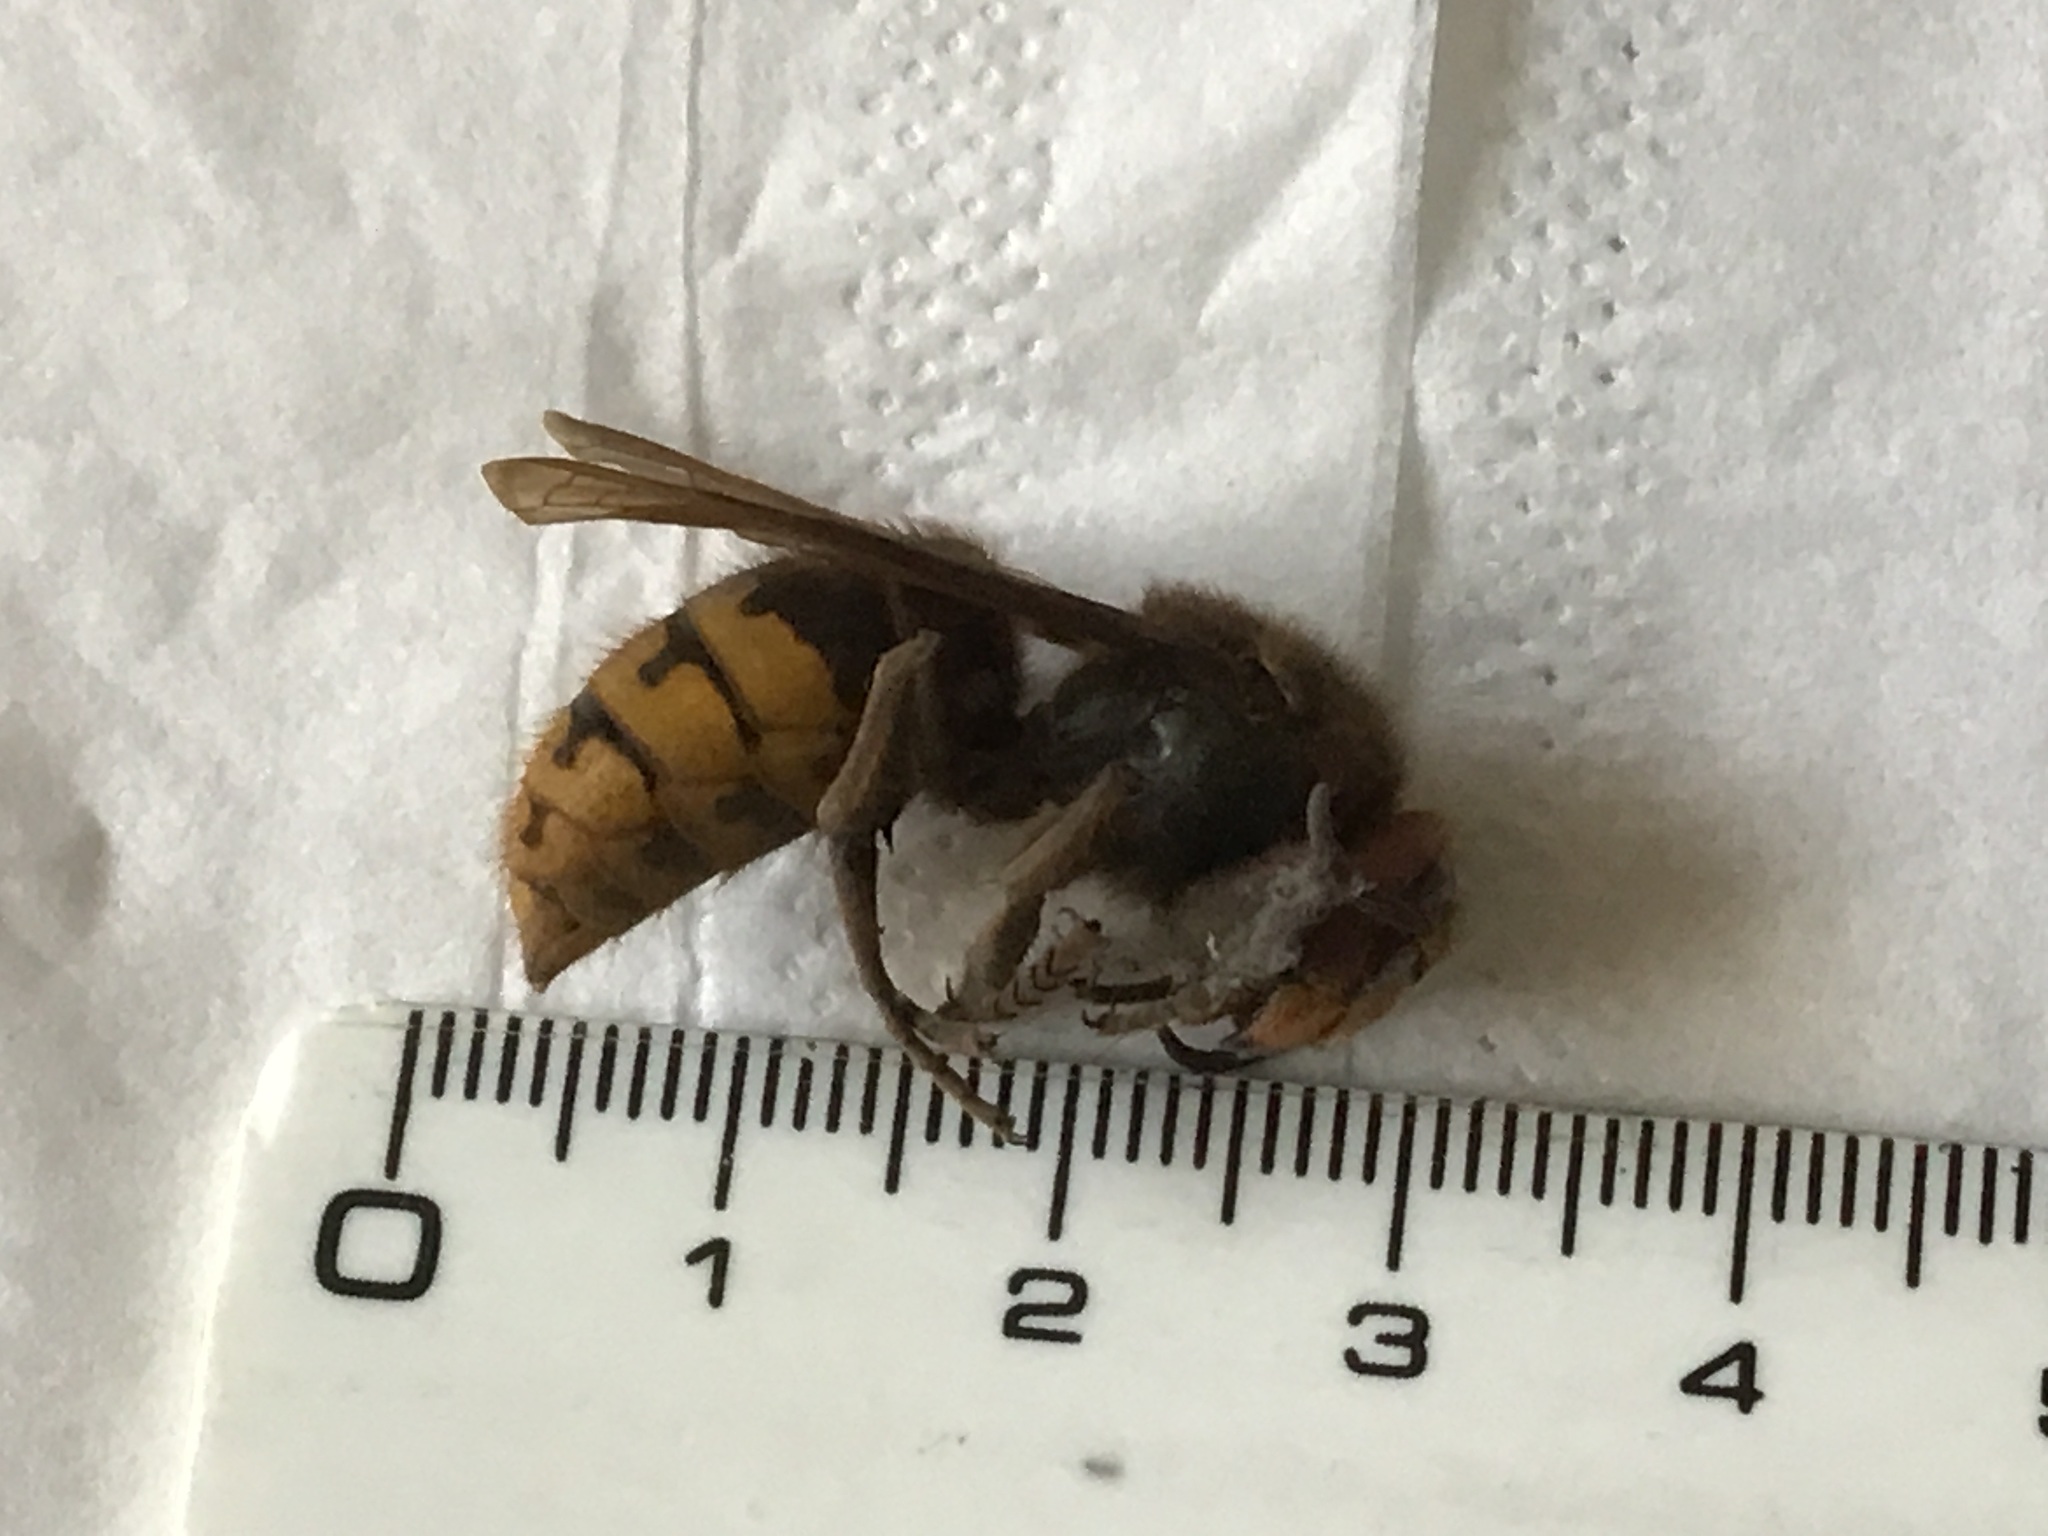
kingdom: Animalia
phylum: Arthropoda
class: Insecta
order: Hymenoptera
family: Vespidae
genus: Vespa
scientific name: Vespa crabro
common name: Hornet
